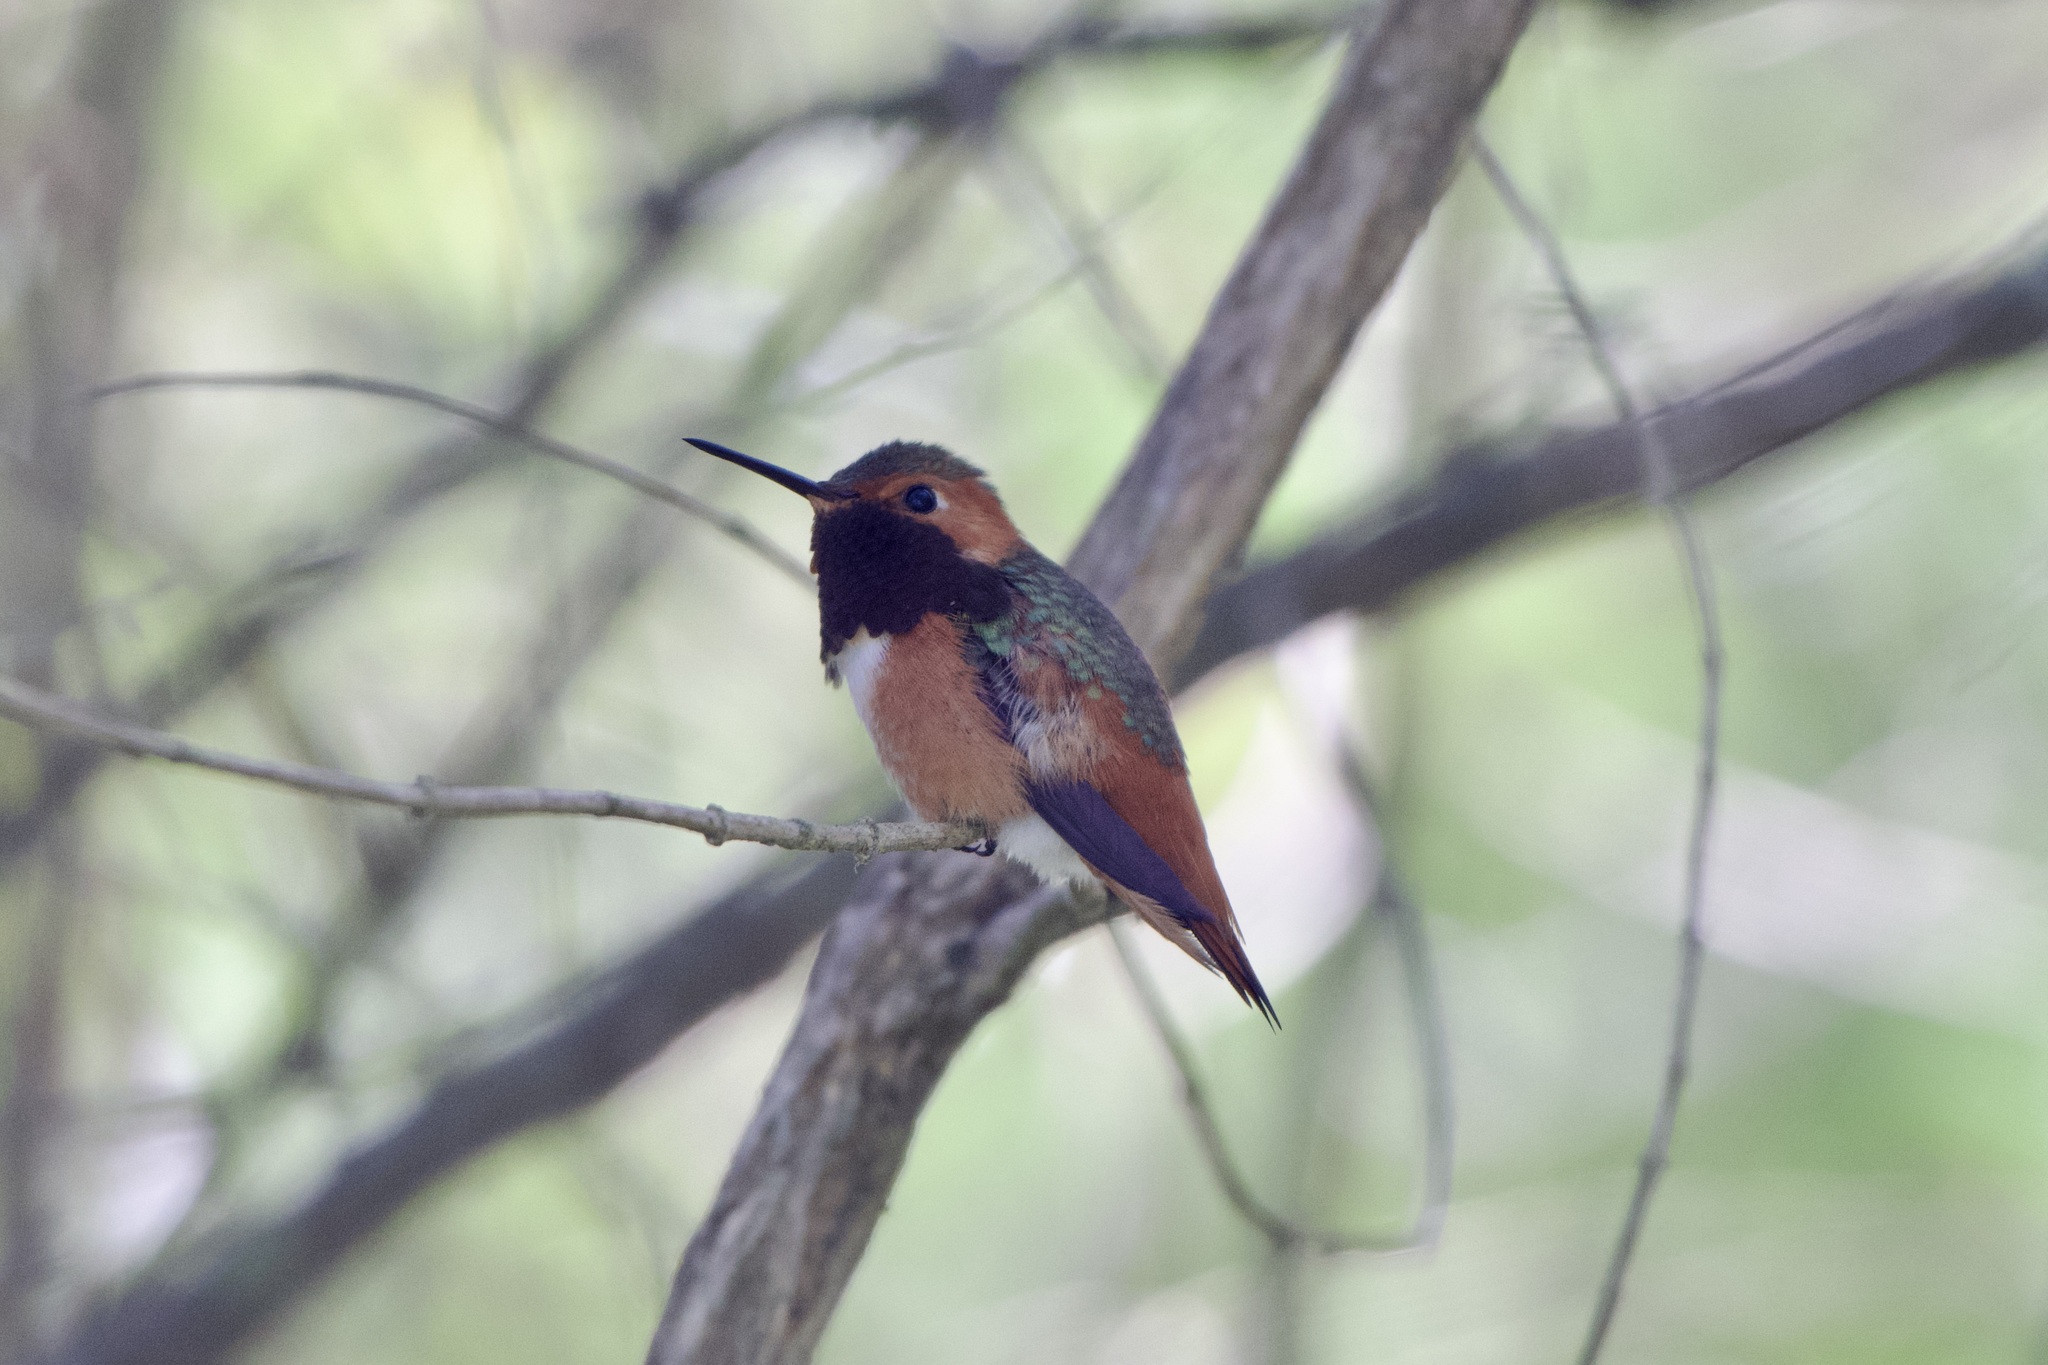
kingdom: Animalia
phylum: Chordata
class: Aves
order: Apodiformes
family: Trochilidae
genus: Selasphorus
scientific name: Selasphorus sasin
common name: Allen's hummingbird
